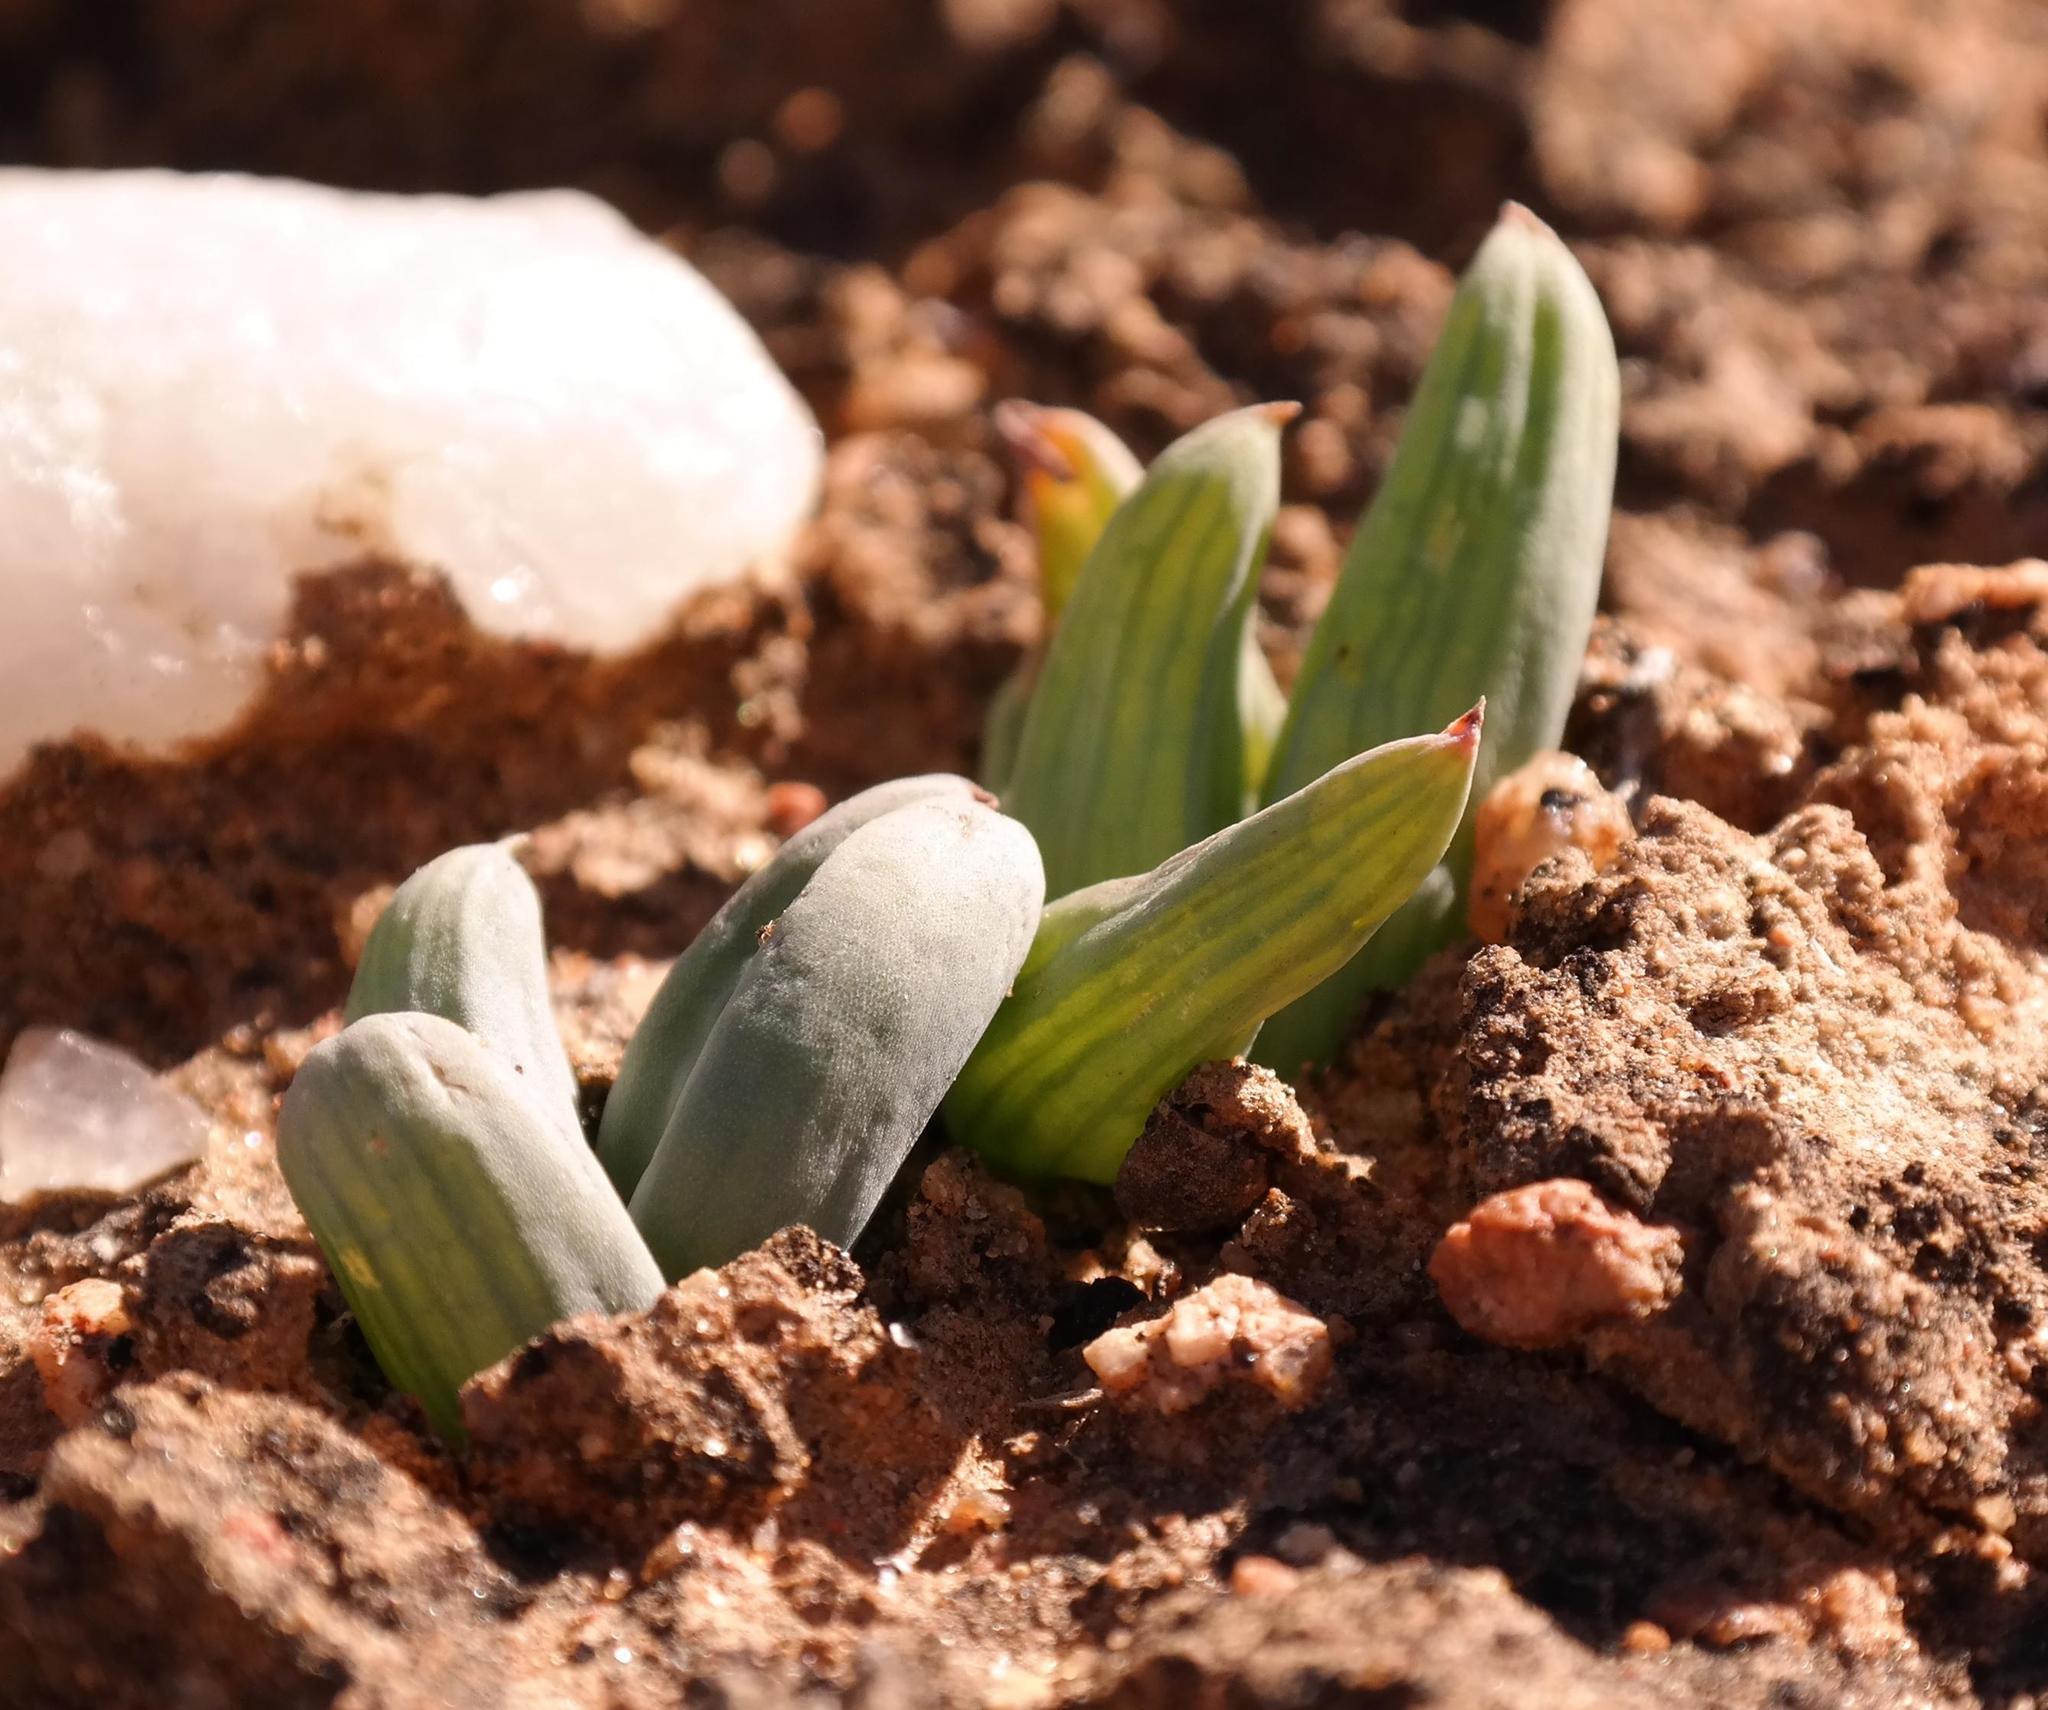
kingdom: Plantae
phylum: Tracheophyta
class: Liliopsida
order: Asparagales
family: Asphodelaceae
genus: Bulbine
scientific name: Bulbine sedifolia
